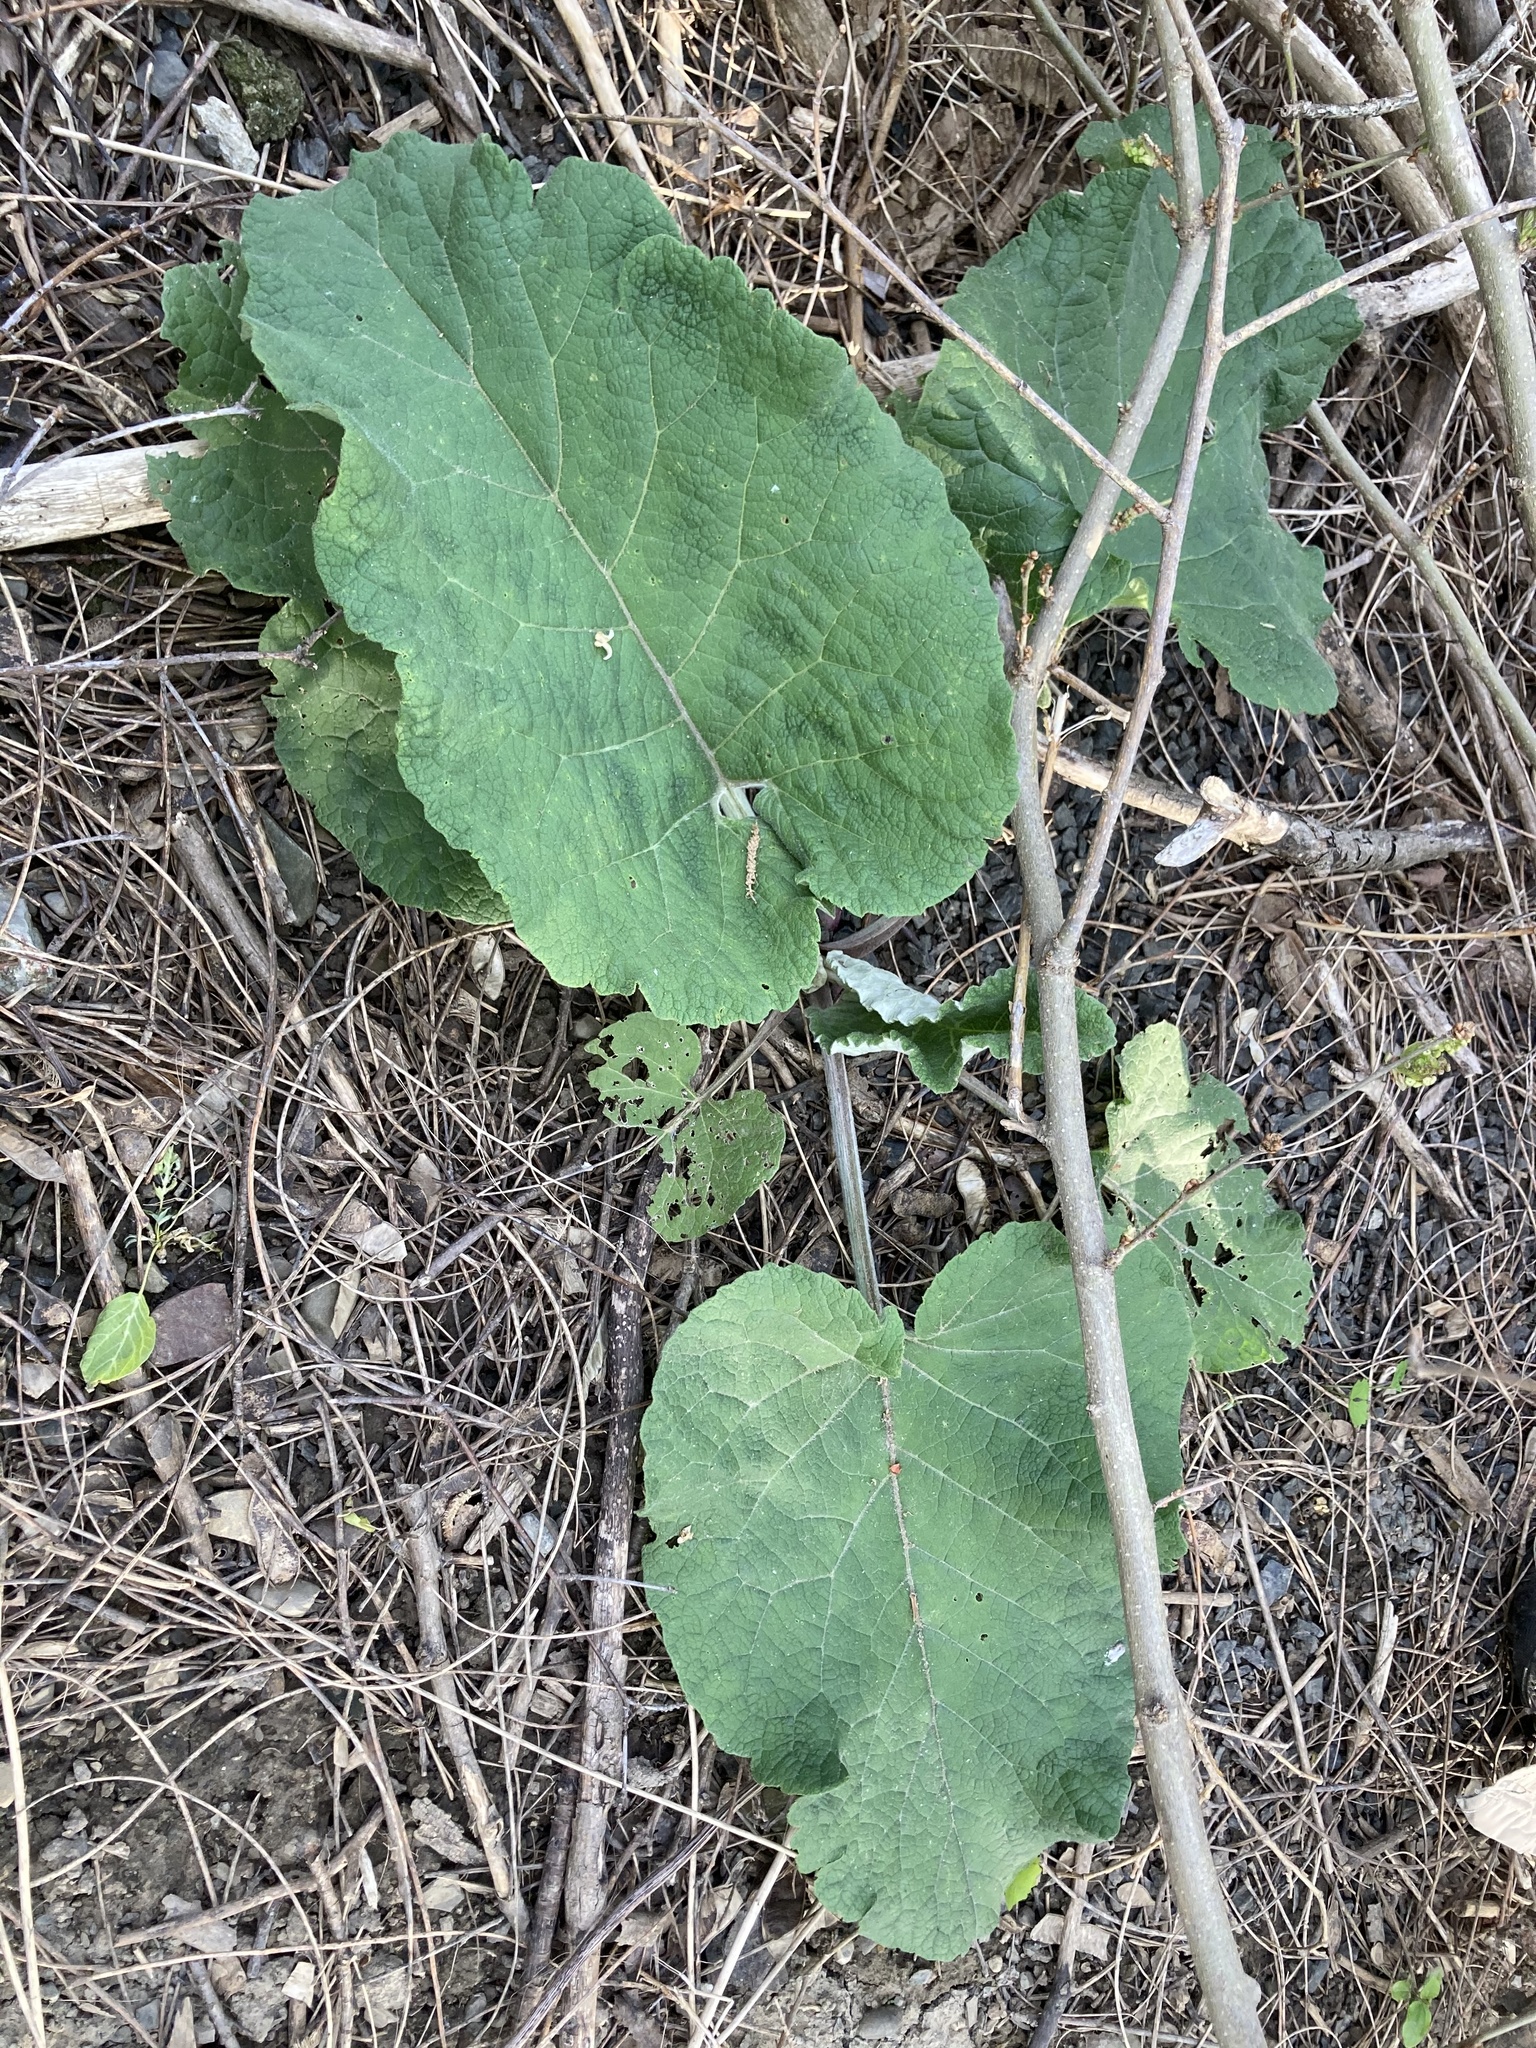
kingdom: Plantae
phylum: Tracheophyta
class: Magnoliopsida
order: Asterales
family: Asteraceae
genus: Arctium
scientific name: Arctium
